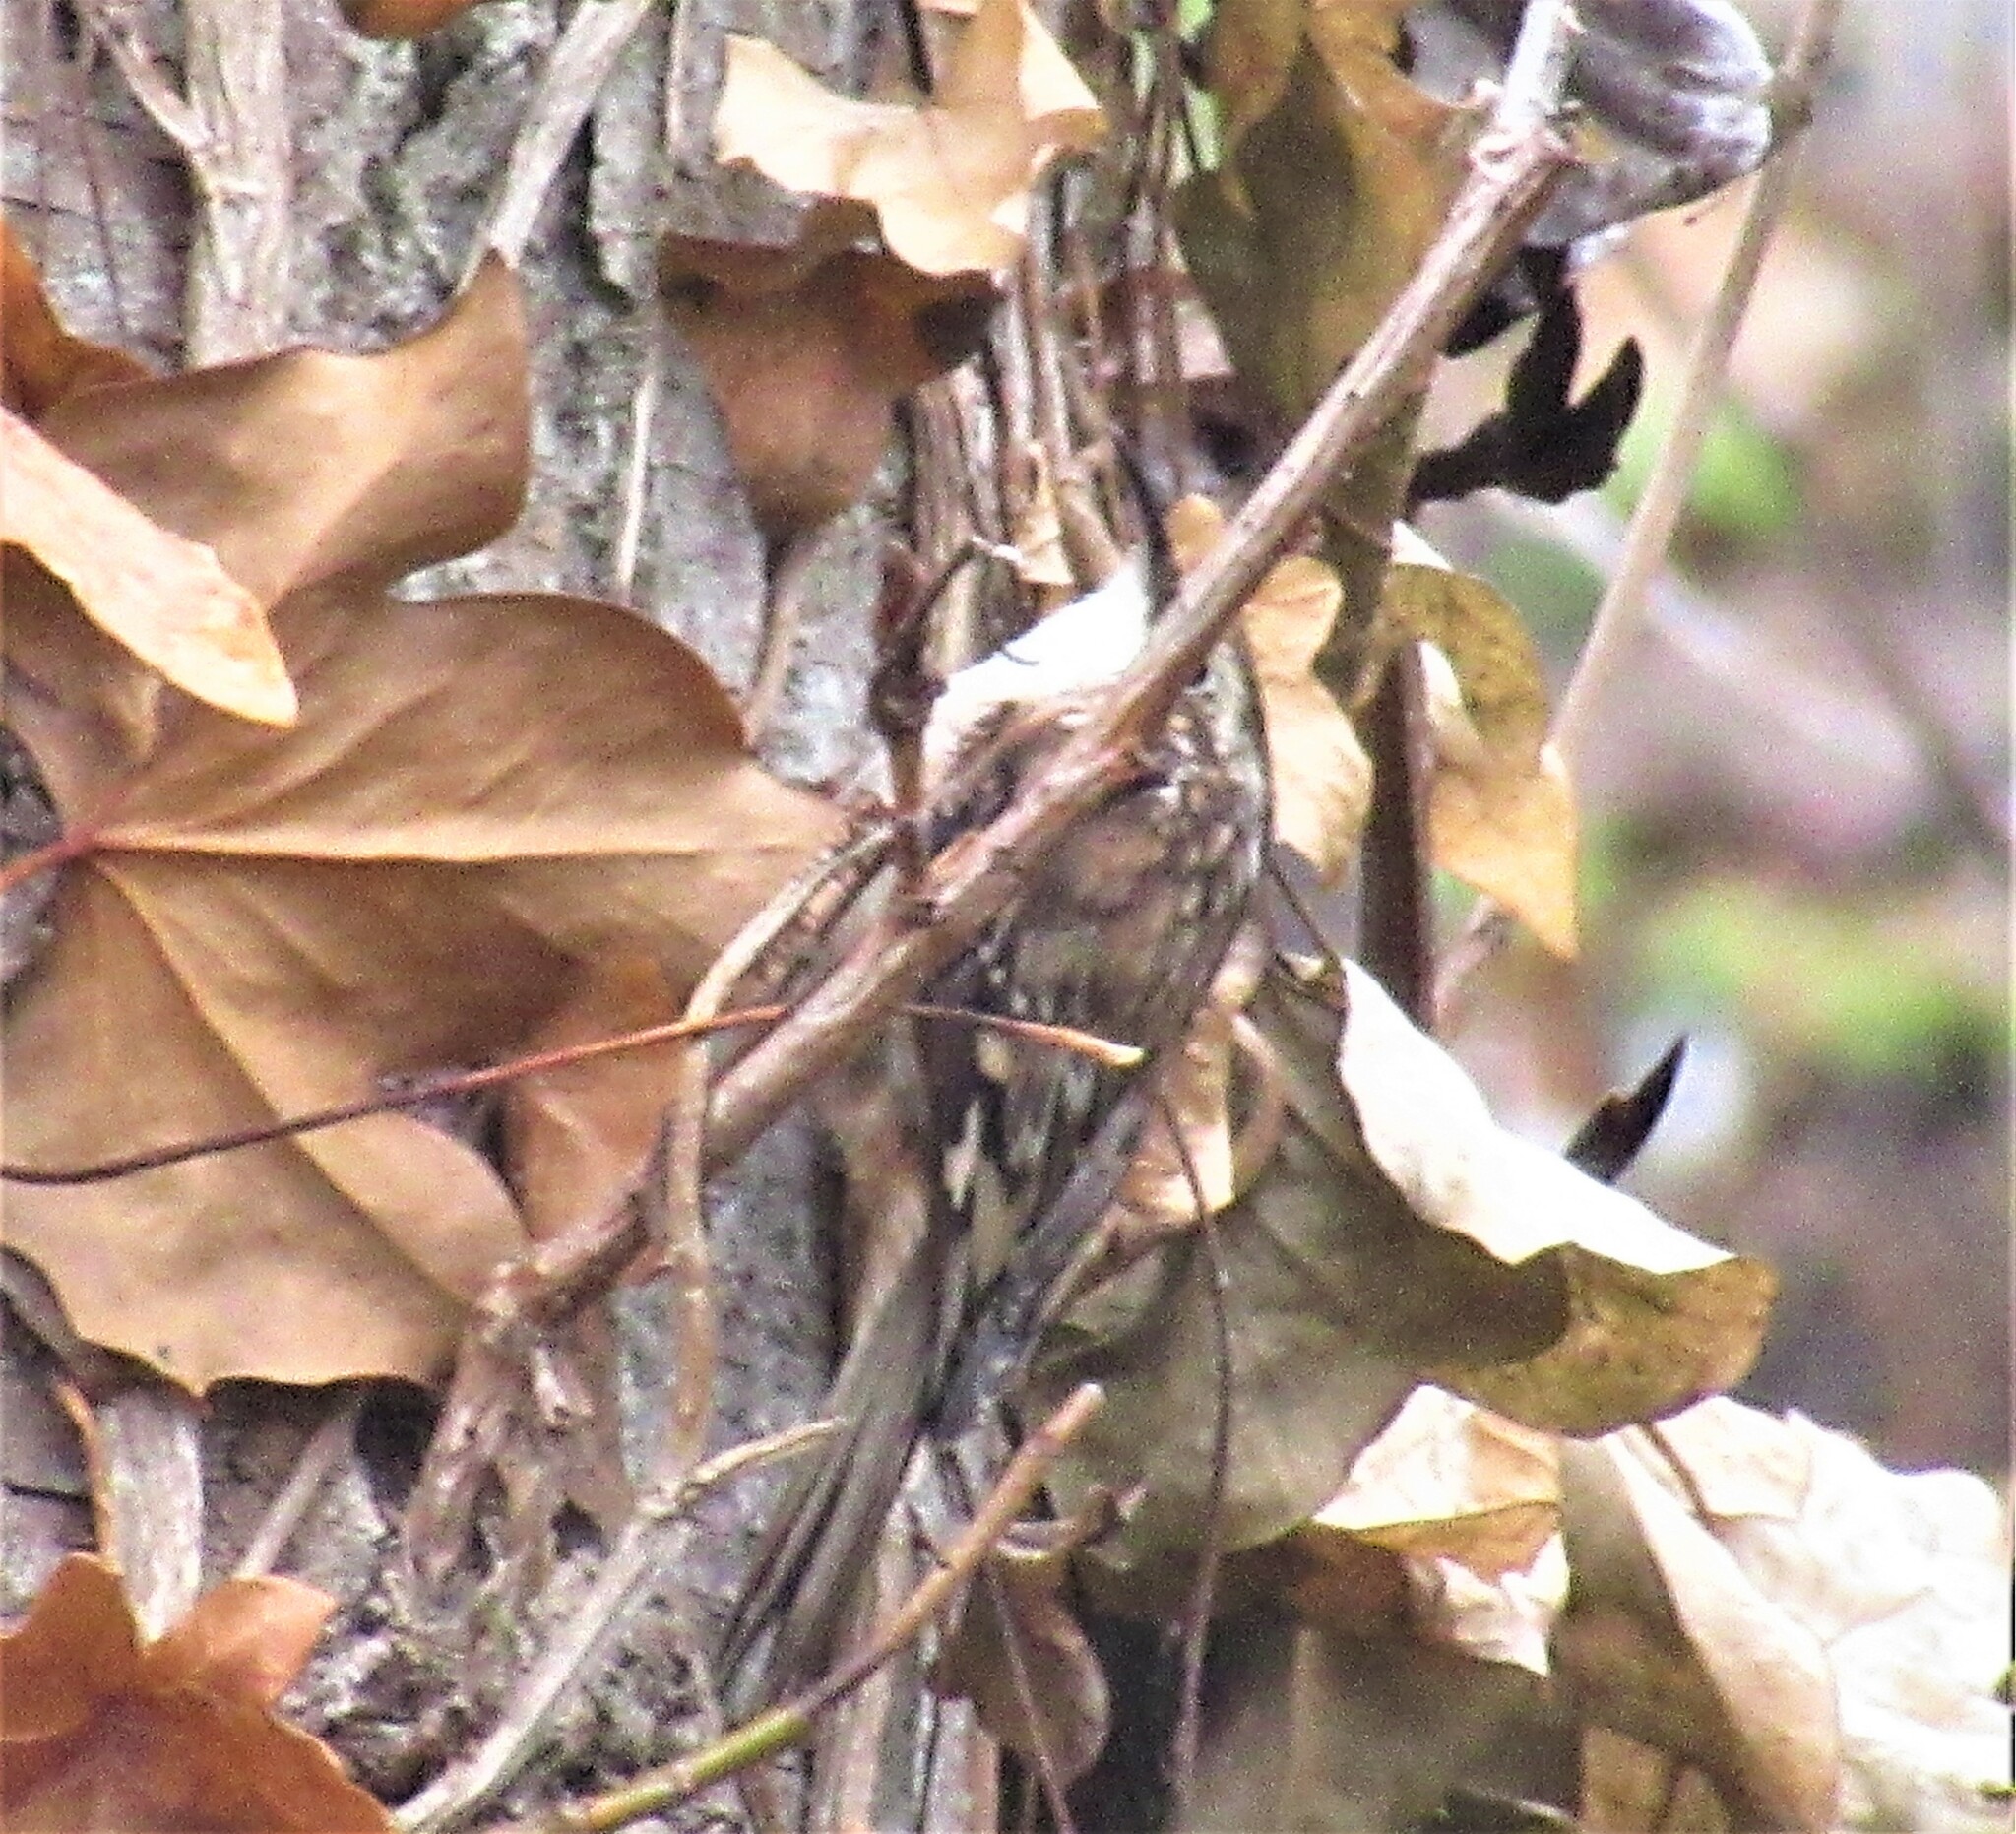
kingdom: Animalia
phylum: Chordata
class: Aves
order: Passeriformes
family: Certhiidae
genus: Certhia
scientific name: Certhia americana
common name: Brown creeper
